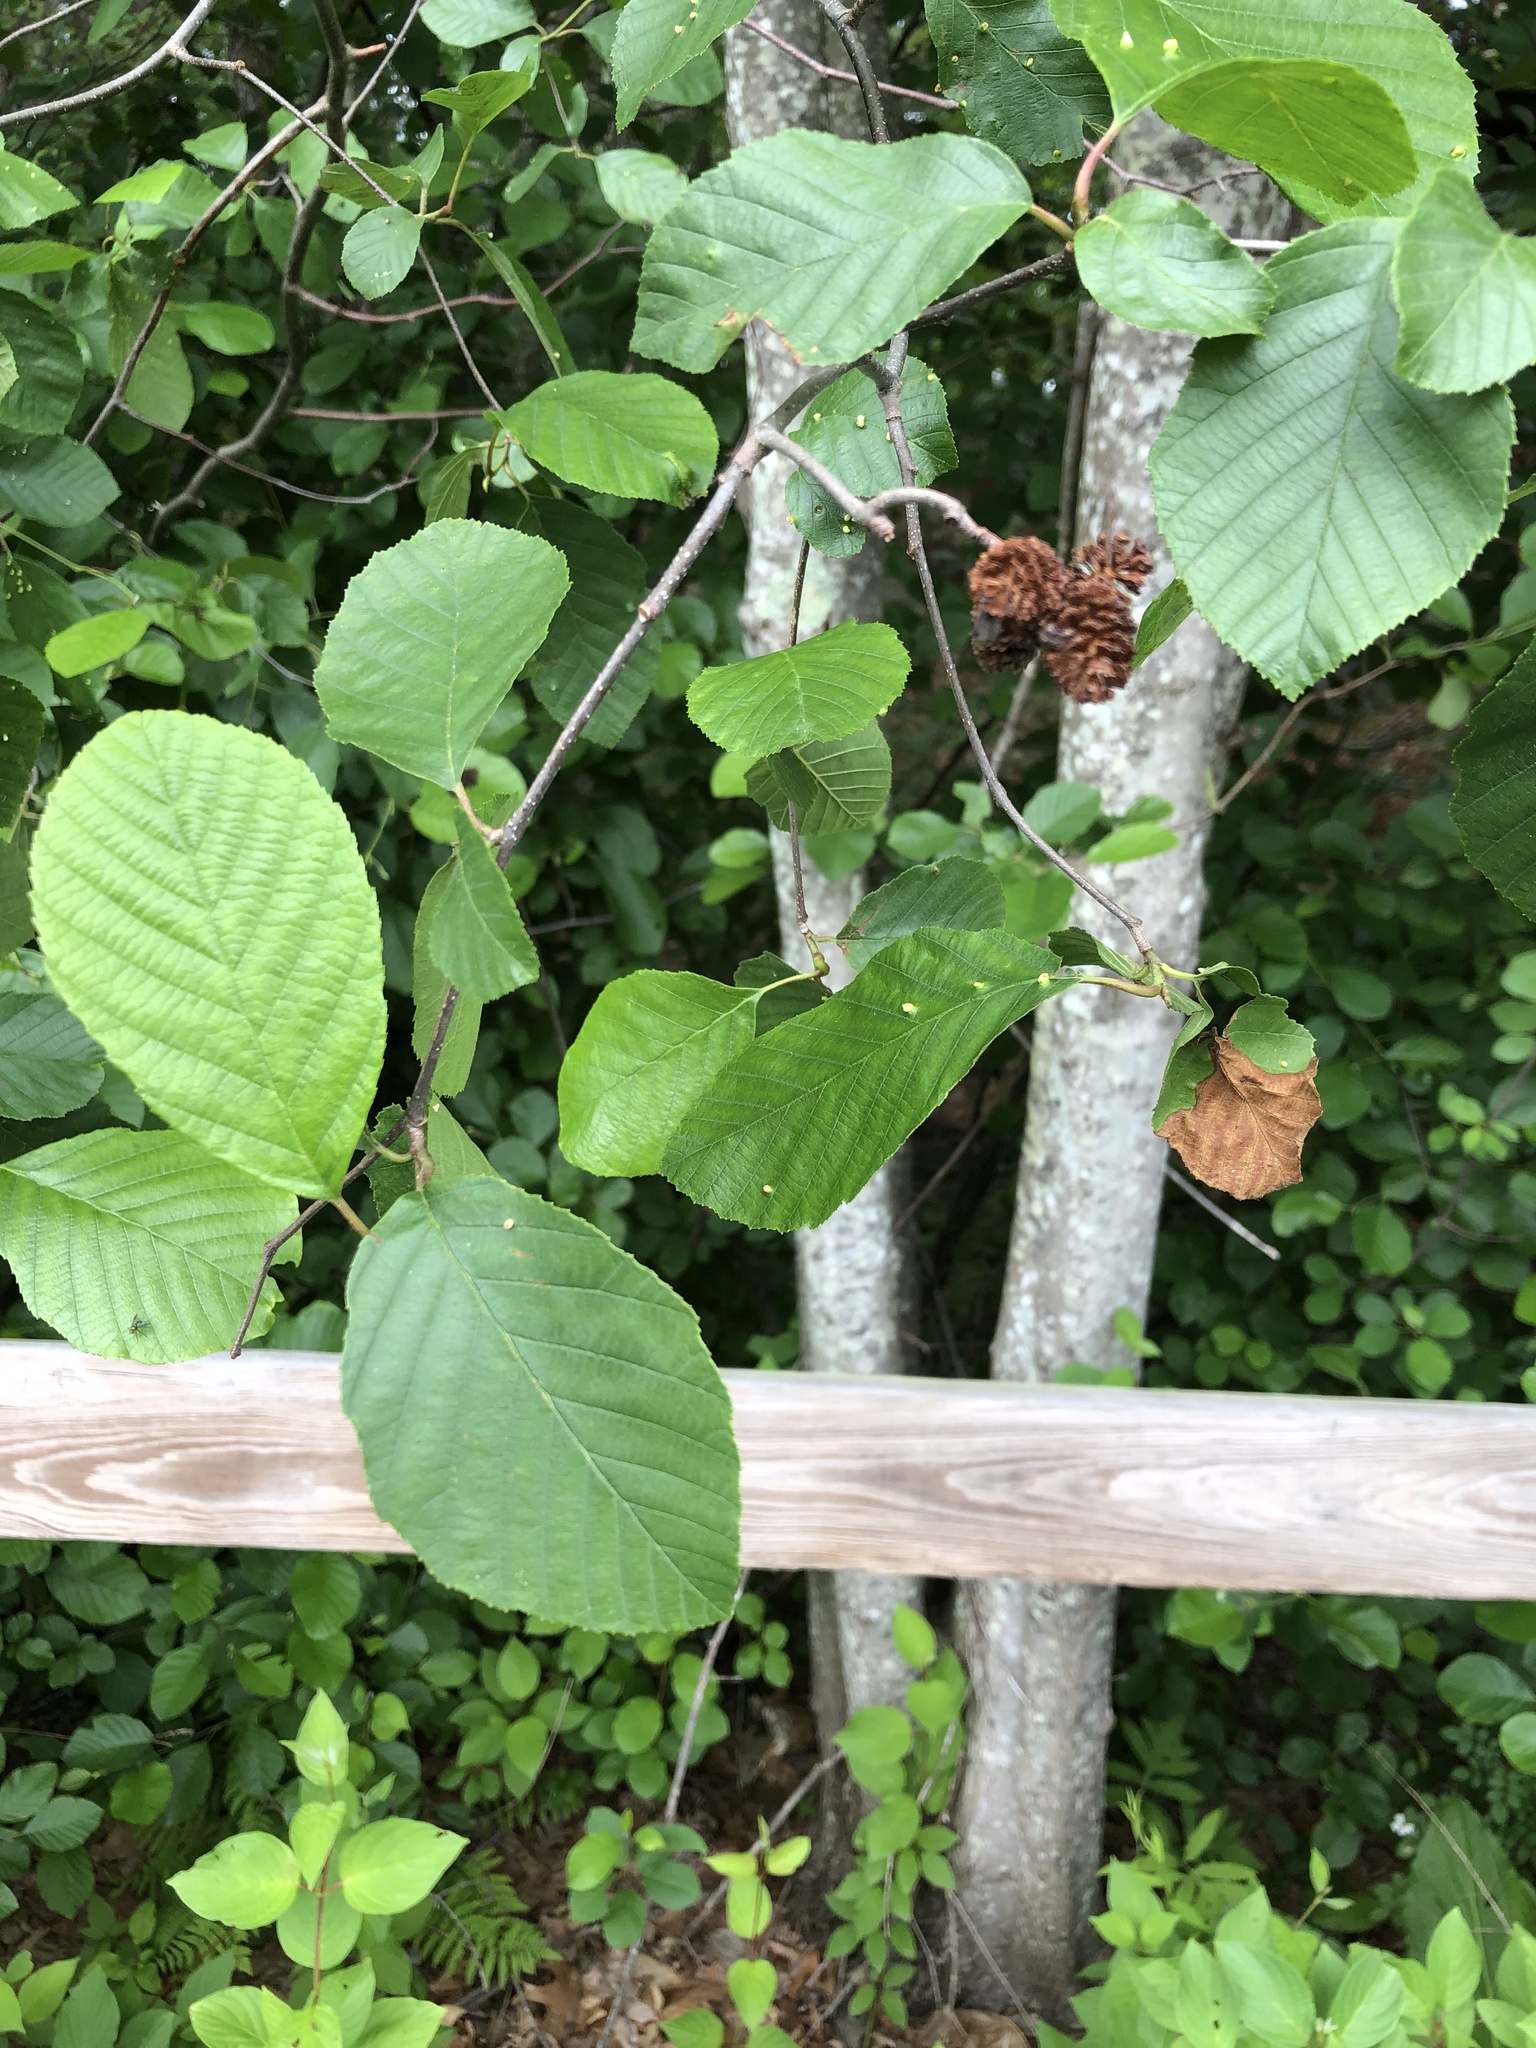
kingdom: Plantae
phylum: Tracheophyta
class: Magnoliopsida
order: Fagales
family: Betulaceae
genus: Alnus
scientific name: Alnus serrulata
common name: Hazel alder
